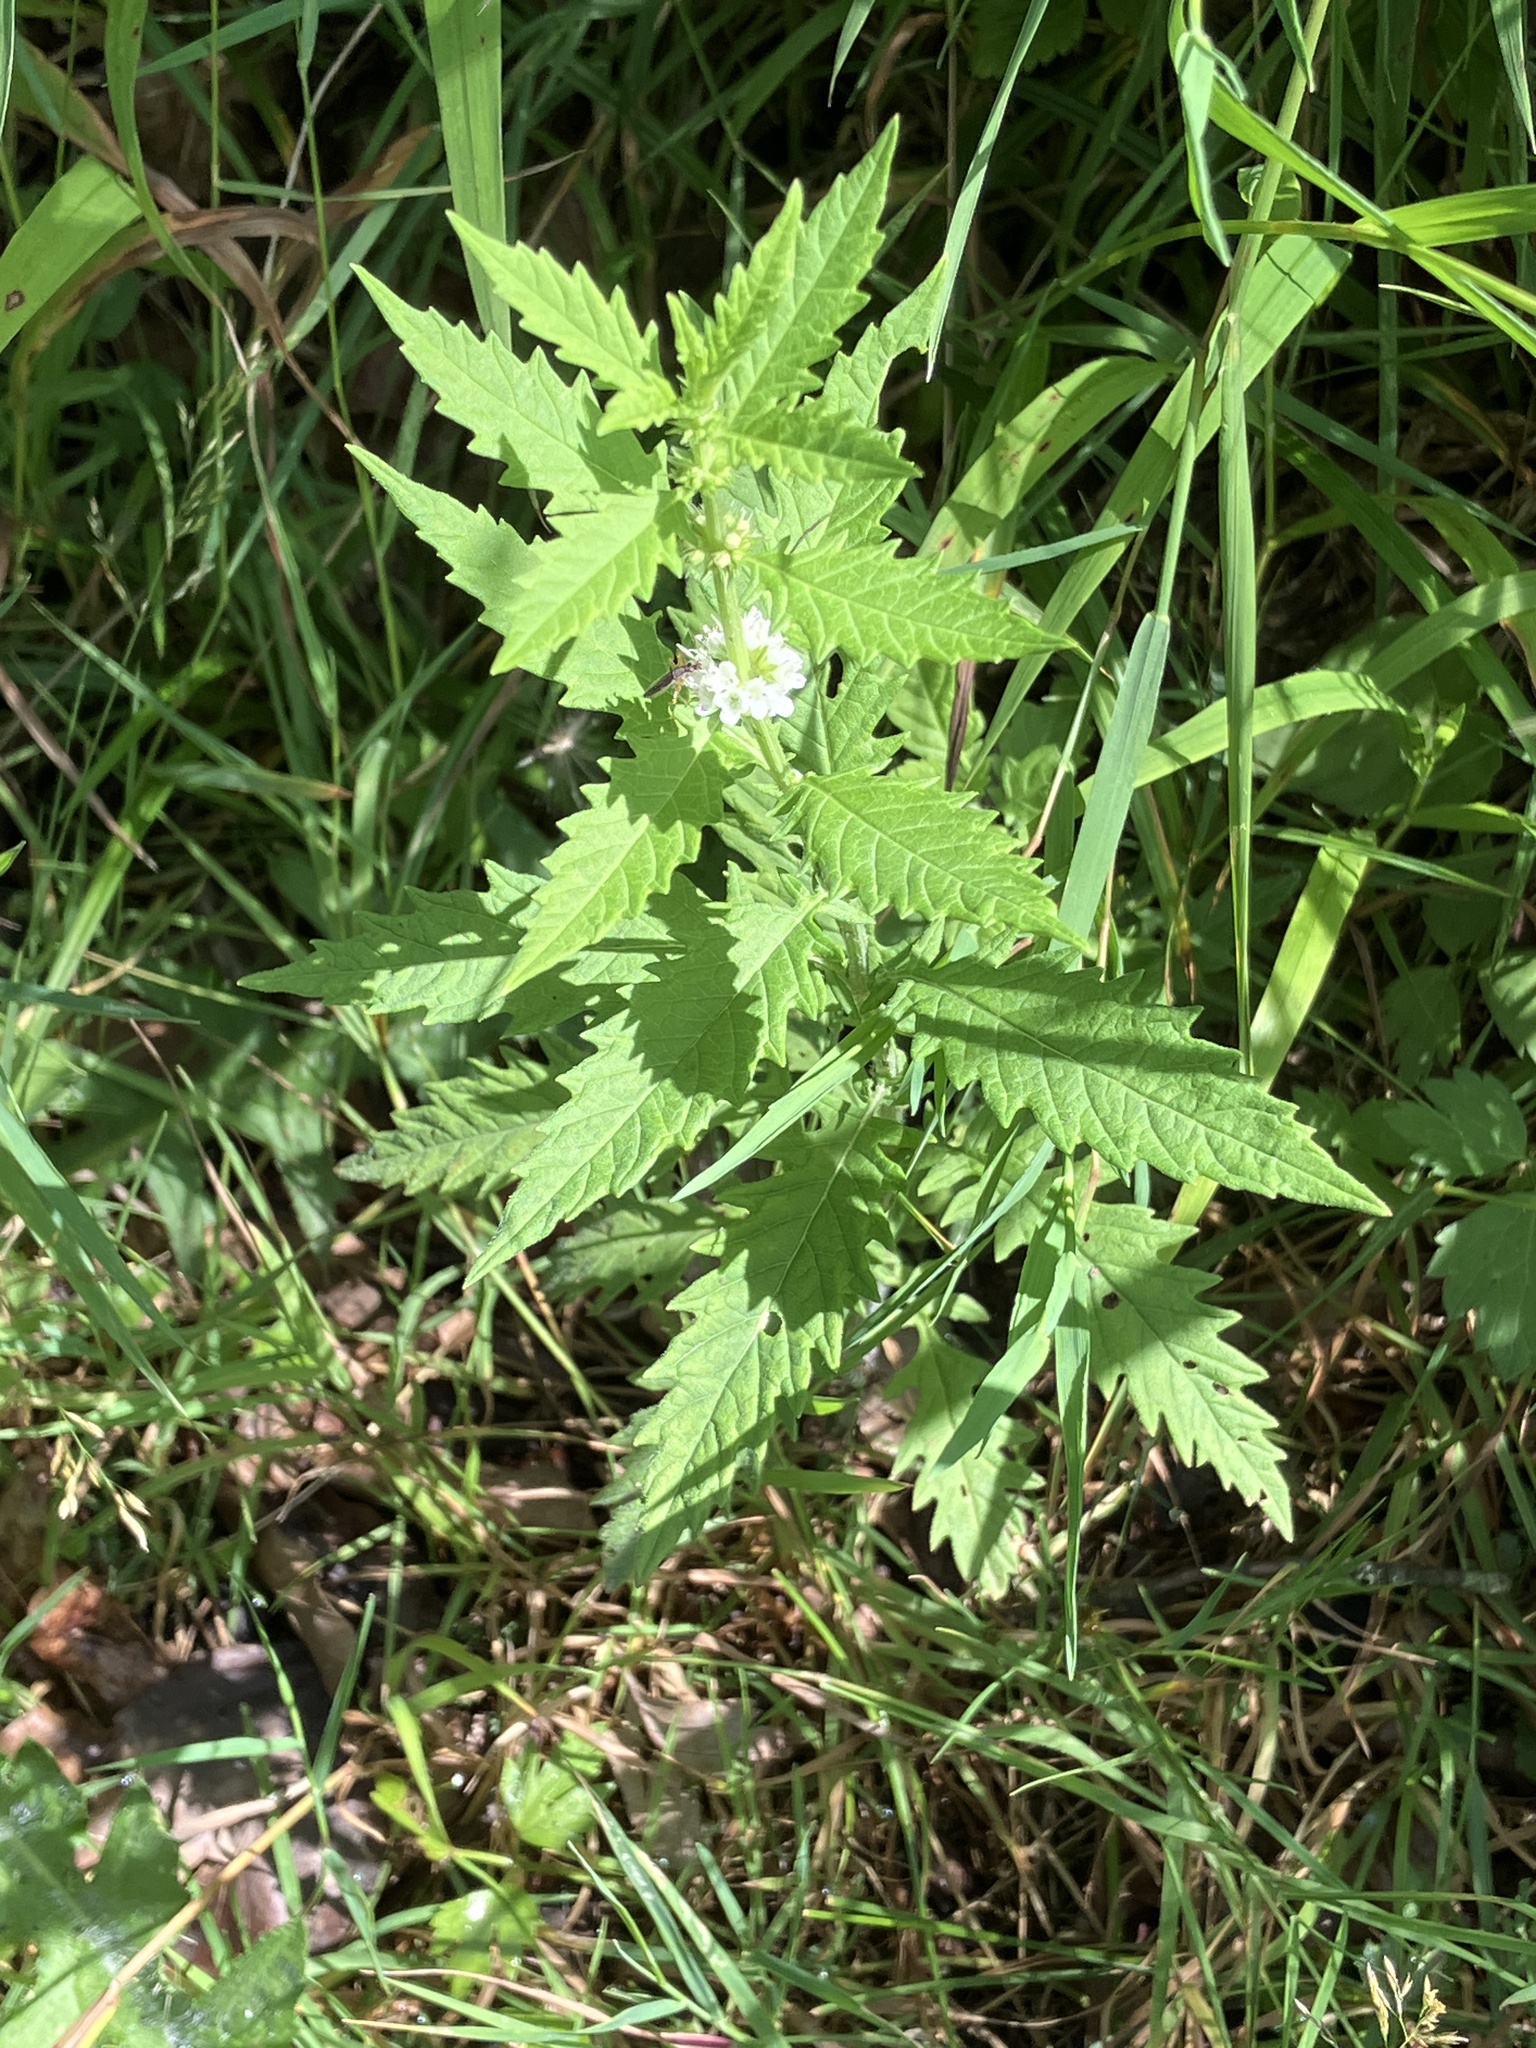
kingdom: Plantae
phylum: Tracheophyta
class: Magnoliopsida
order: Lamiales
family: Lamiaceae
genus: Lycopus
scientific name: Lycopus europaeus
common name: European bugleweed
